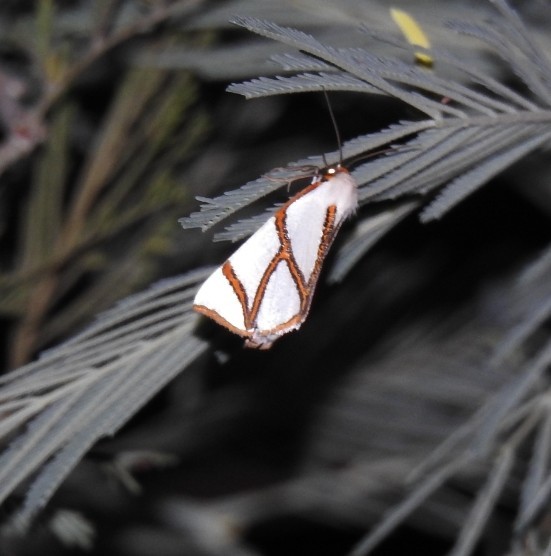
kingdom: Animalia
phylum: Arthropoda
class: Insecta
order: Lepidoptera
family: Geometridae
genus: Thalaina
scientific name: Thalaina clara
